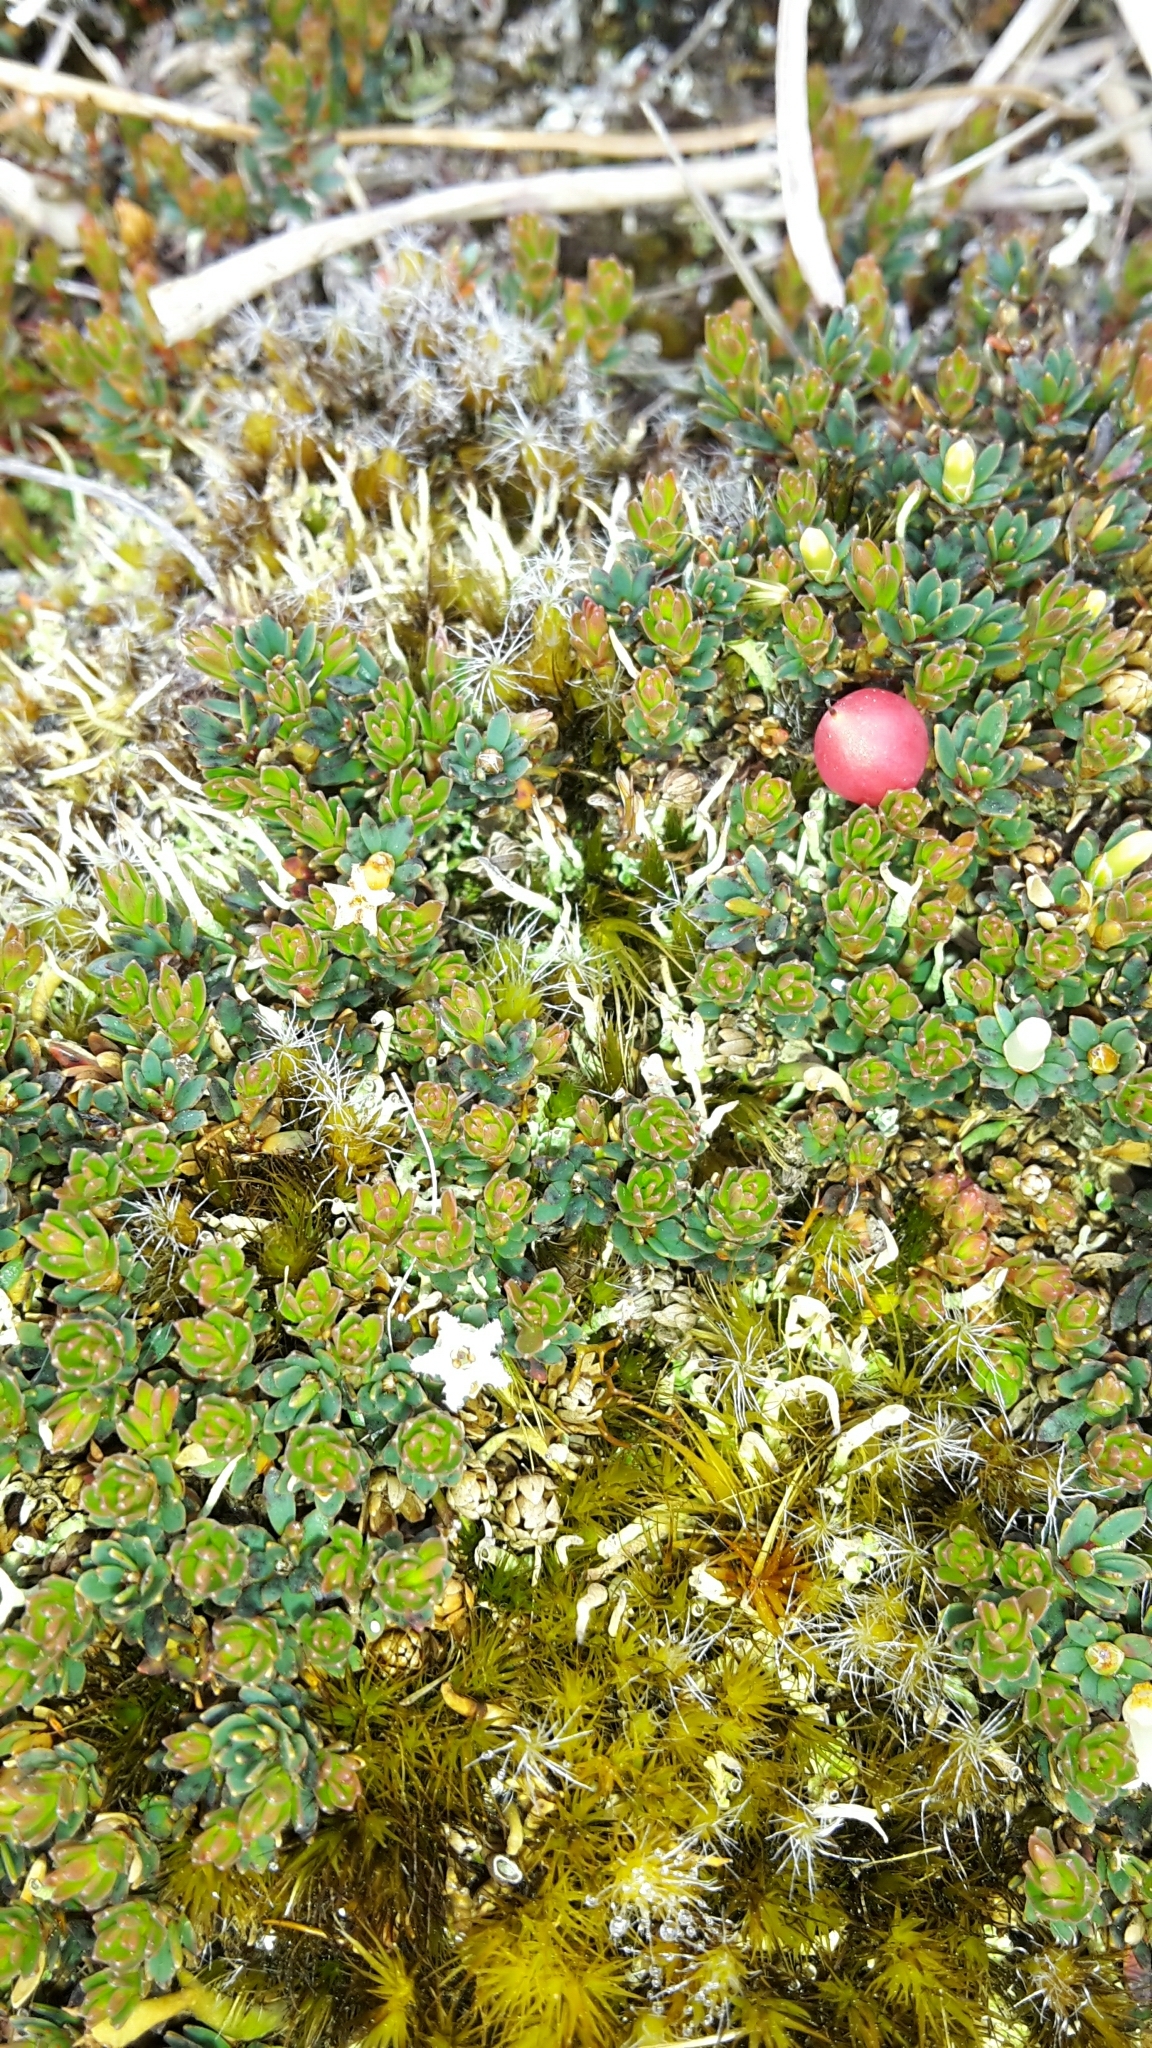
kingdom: Plantae
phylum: Tracheophyta
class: Magnoliopsida
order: Ericales
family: Ericaceae
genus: Pentachondra
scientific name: Pentachondra pumila
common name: Carpet-heath
